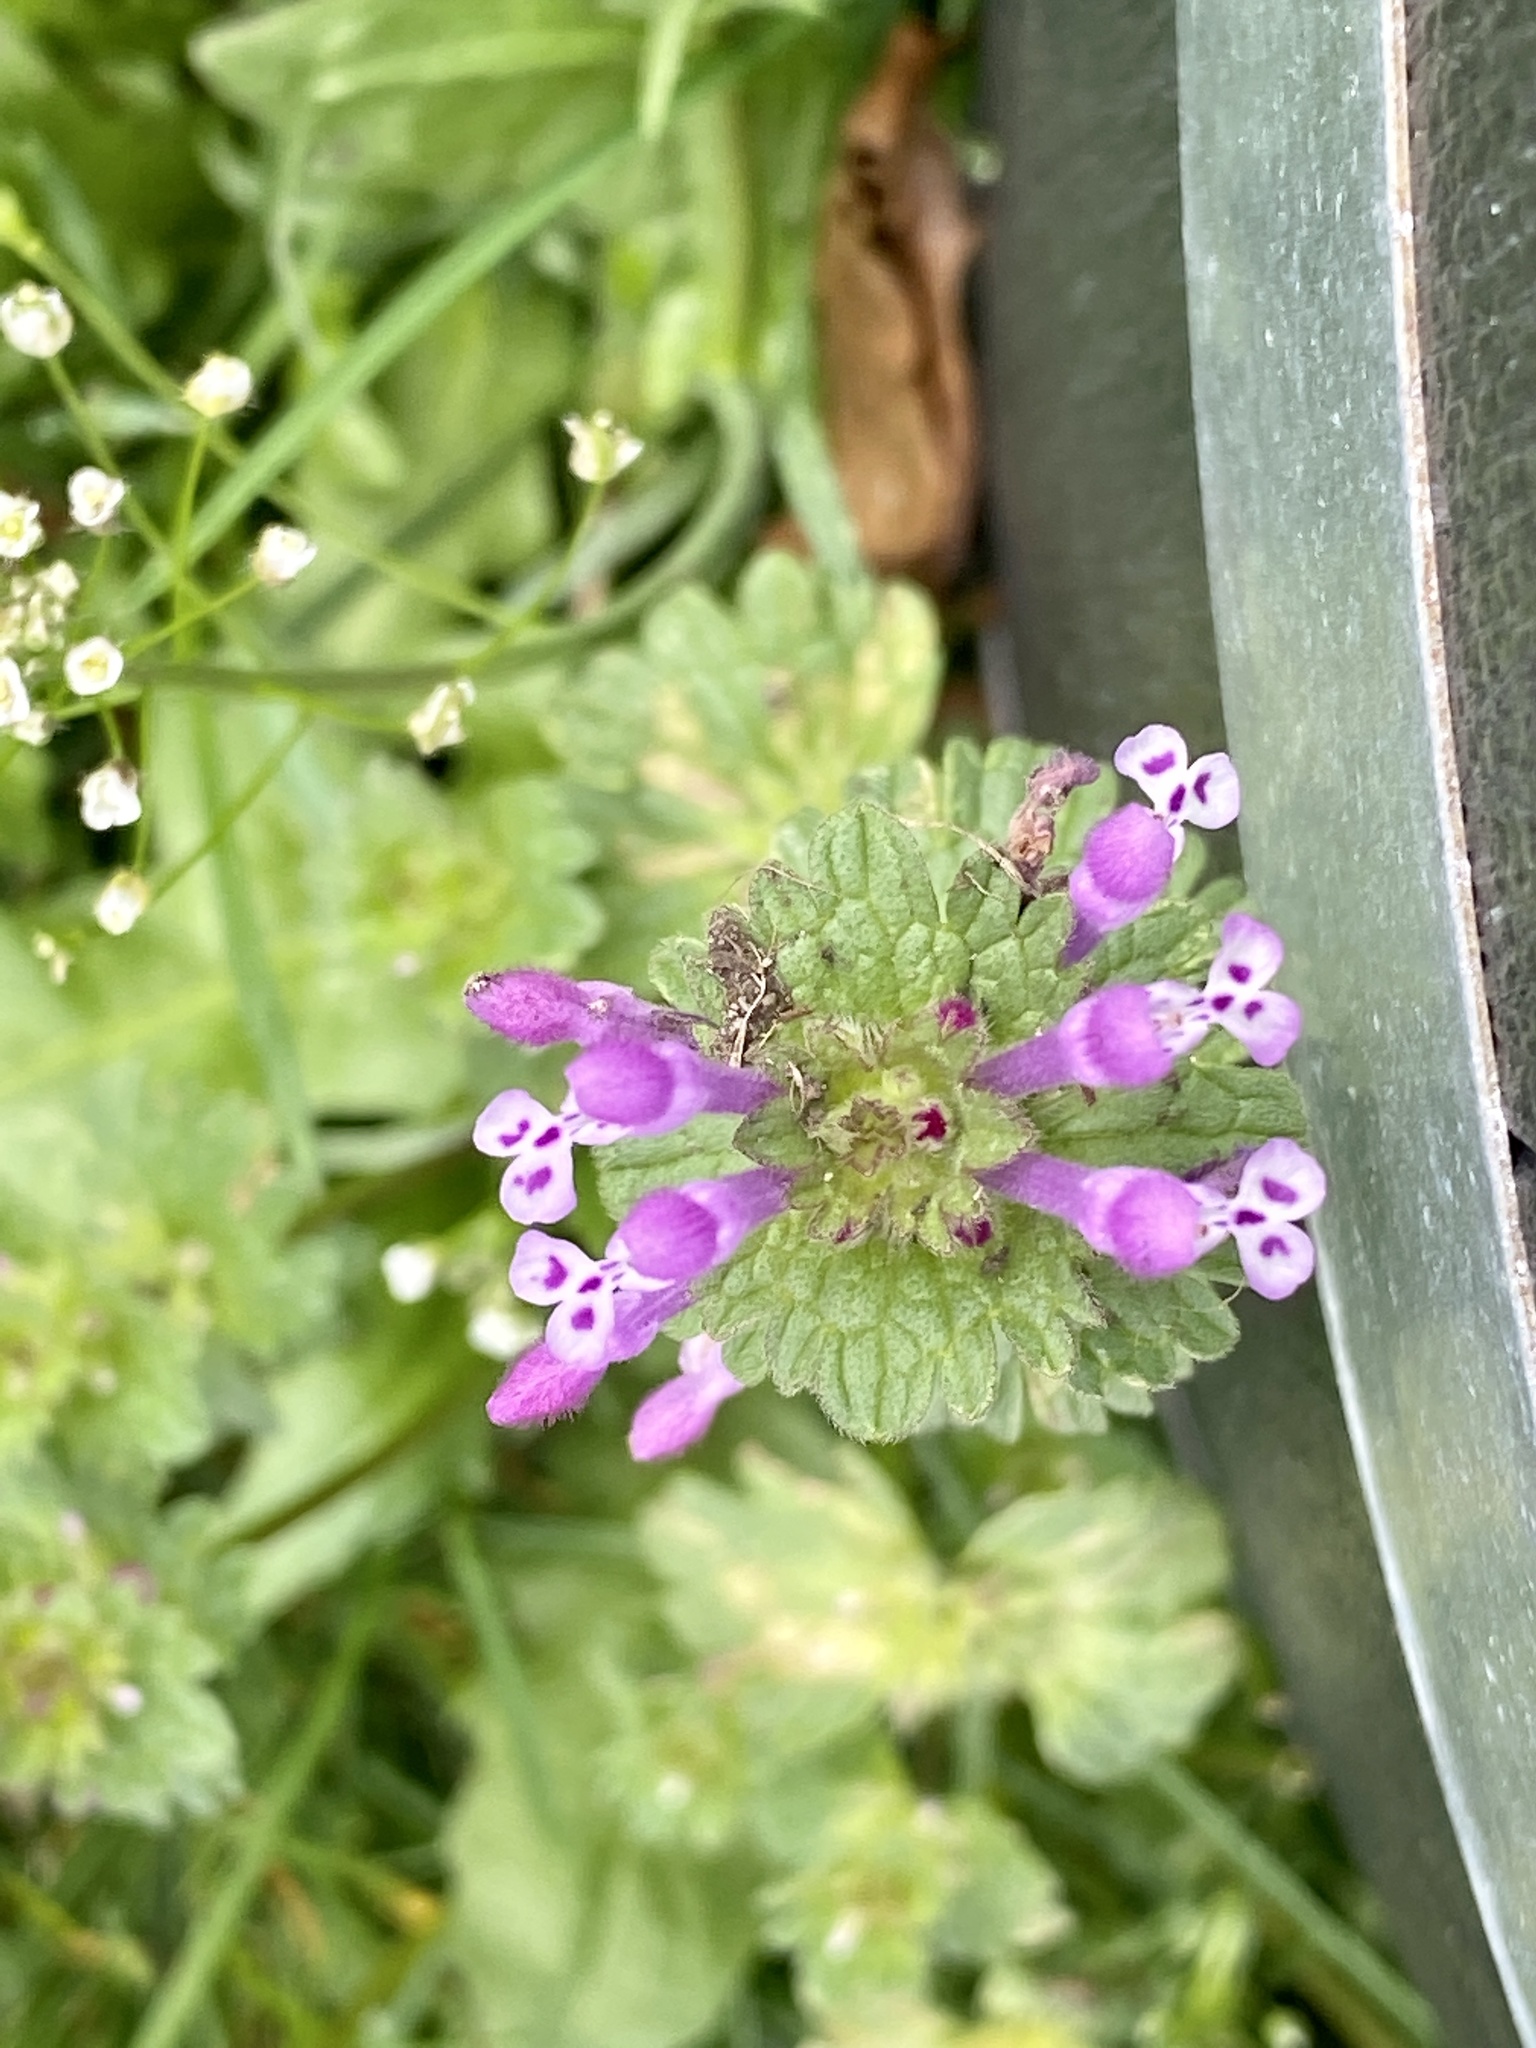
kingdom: Plantae
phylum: Tracheophyta
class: Magnoliopsida
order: Lamiales
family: Lamiaceae
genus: Lamium
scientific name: Lamium amplexicaule
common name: Henbit dead-nettle
